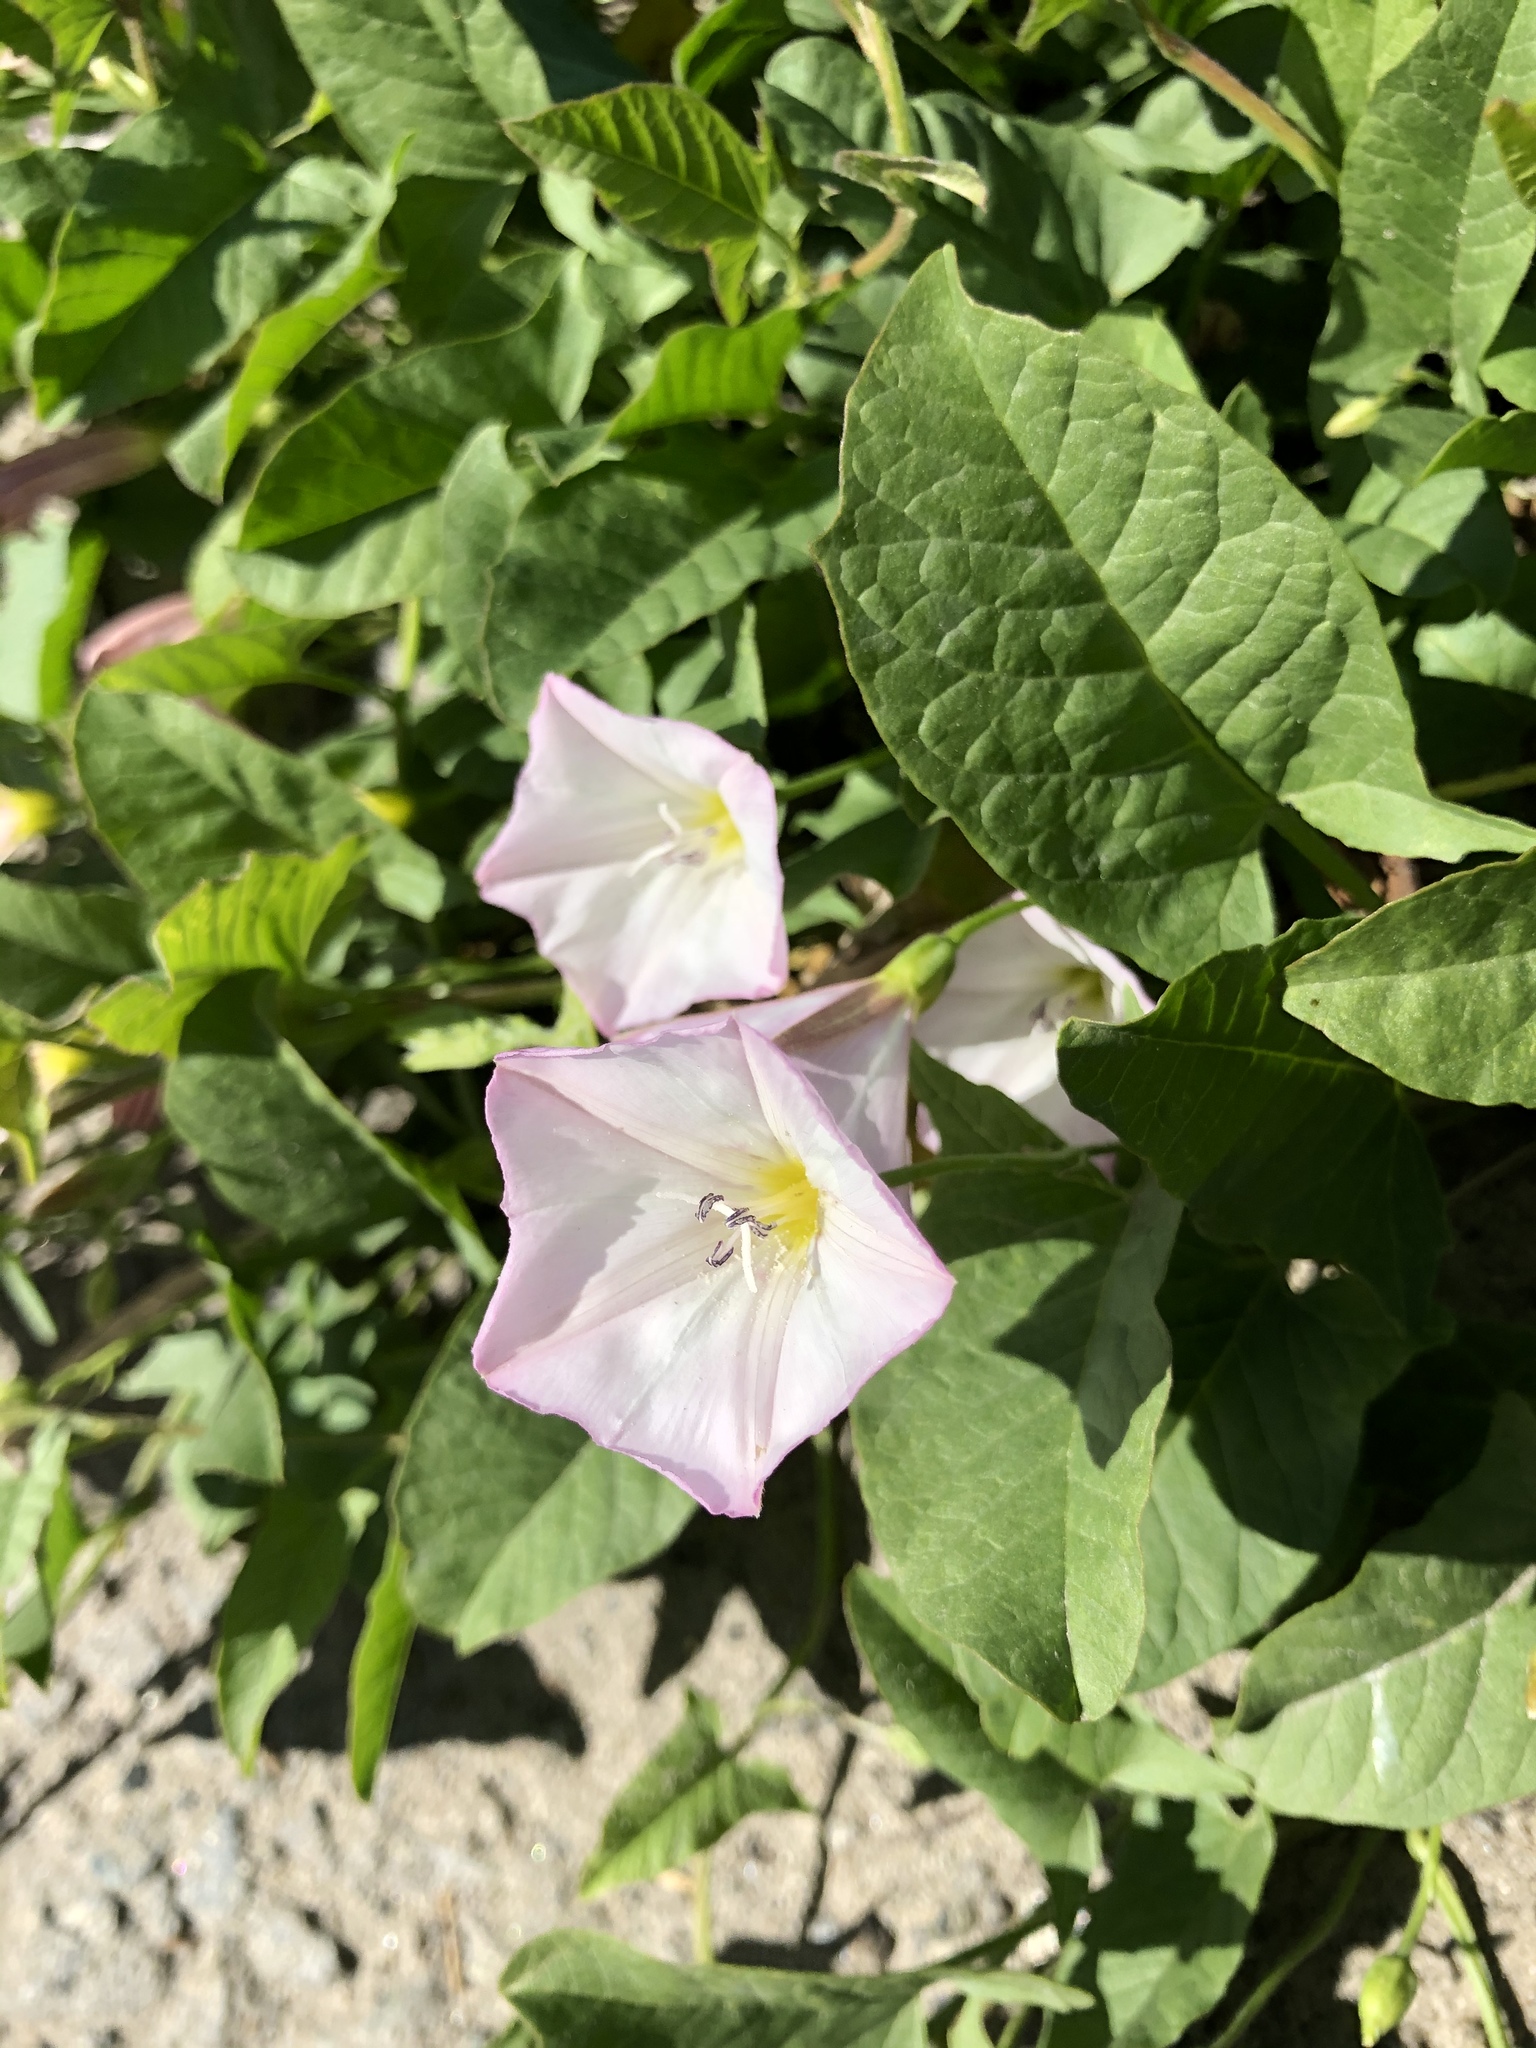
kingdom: Plantae
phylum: Tracheophyta
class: Magnoliopsida
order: Solanales
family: Convolvulaceae
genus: Convolvulus
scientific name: Convolvulus arvensis
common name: Field bindweed
